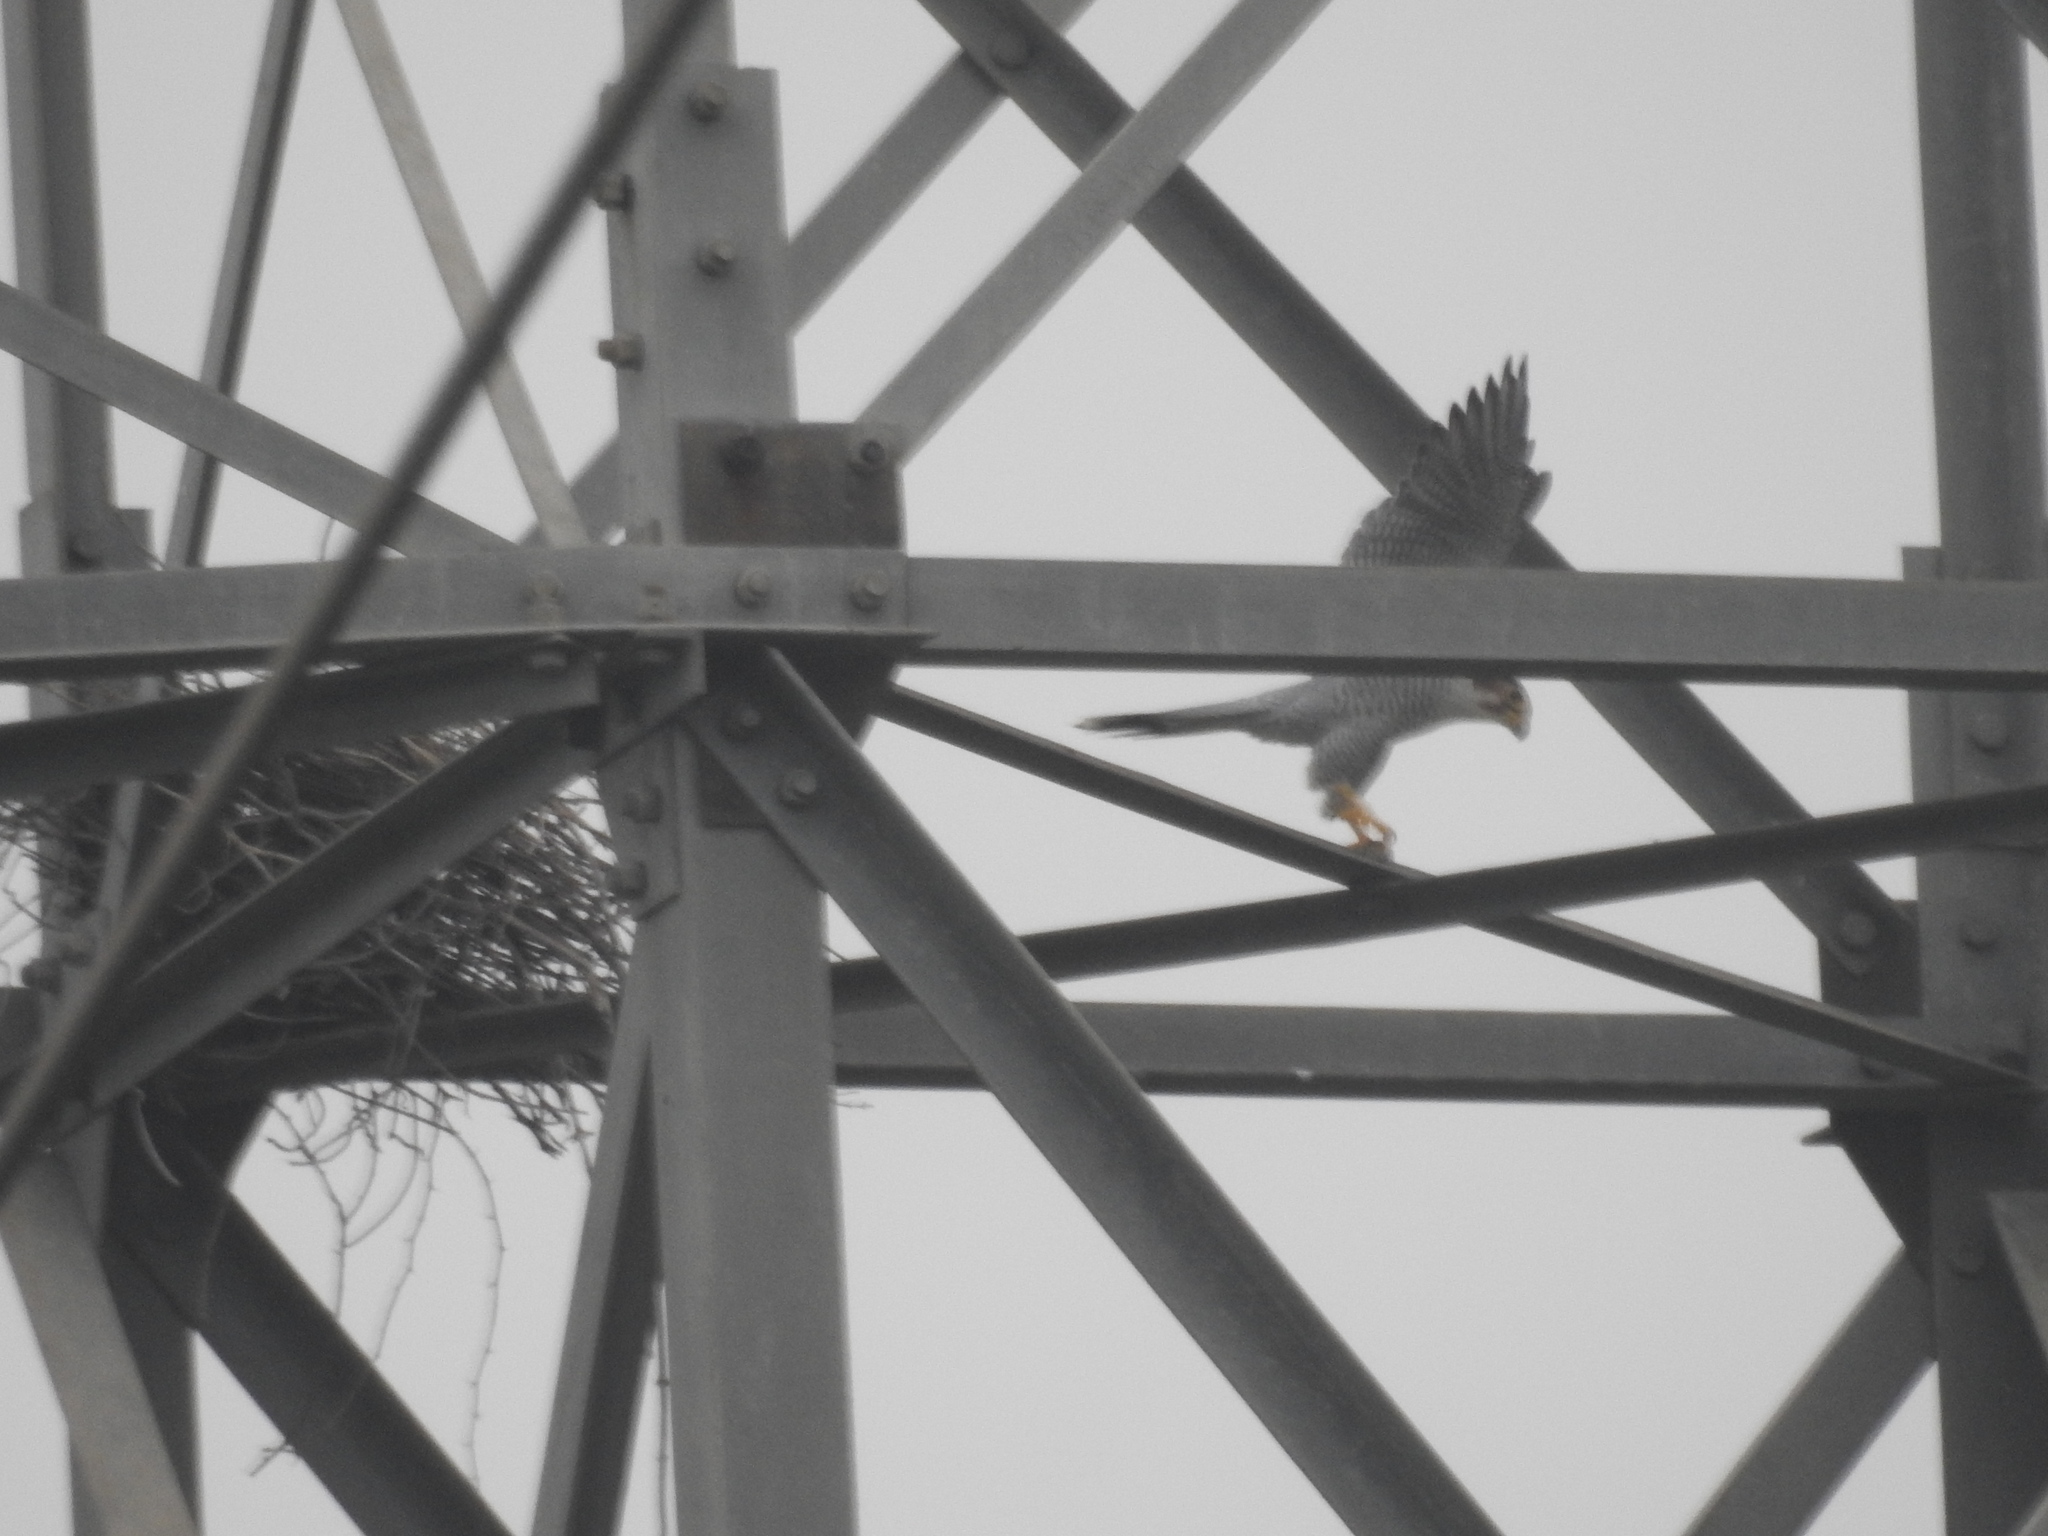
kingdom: Animalia
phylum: Chordata
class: Aves
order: Falconiformes
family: Falconidae
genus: Falco
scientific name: Falco chicquera
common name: Red-necked falcon
